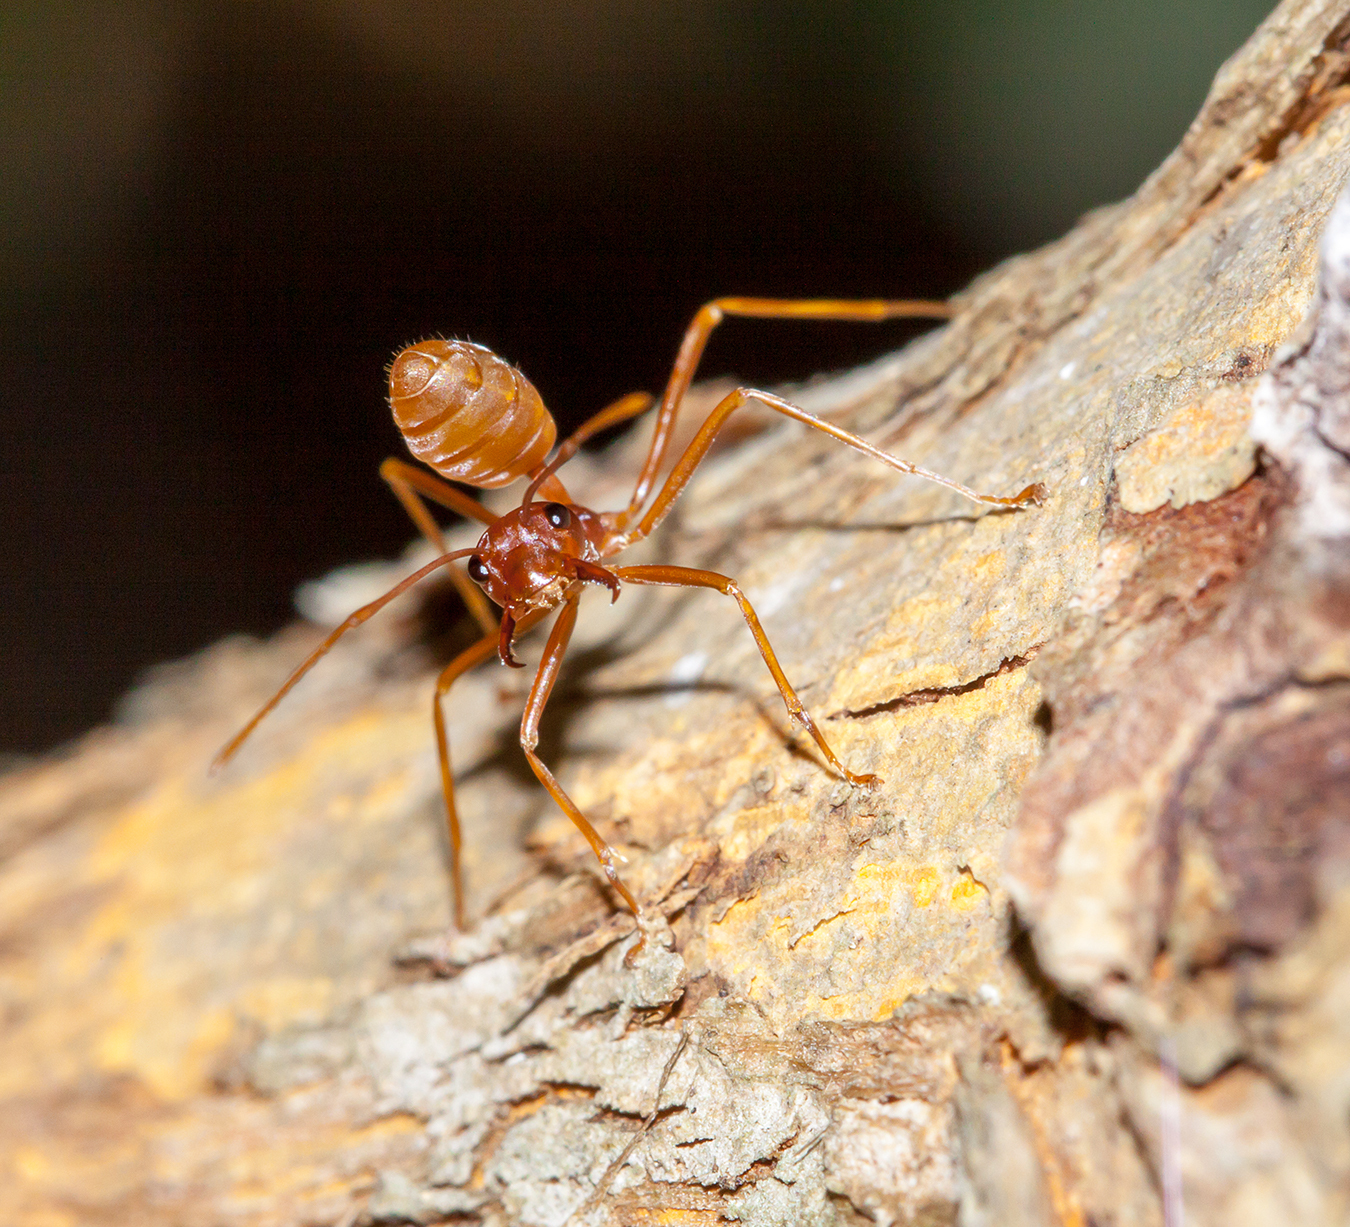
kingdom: Animalia
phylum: Arthropoda
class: Insecta
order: Hymenoptera
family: Formicidae
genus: Oecophylla
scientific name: Oecophylla longinoda
